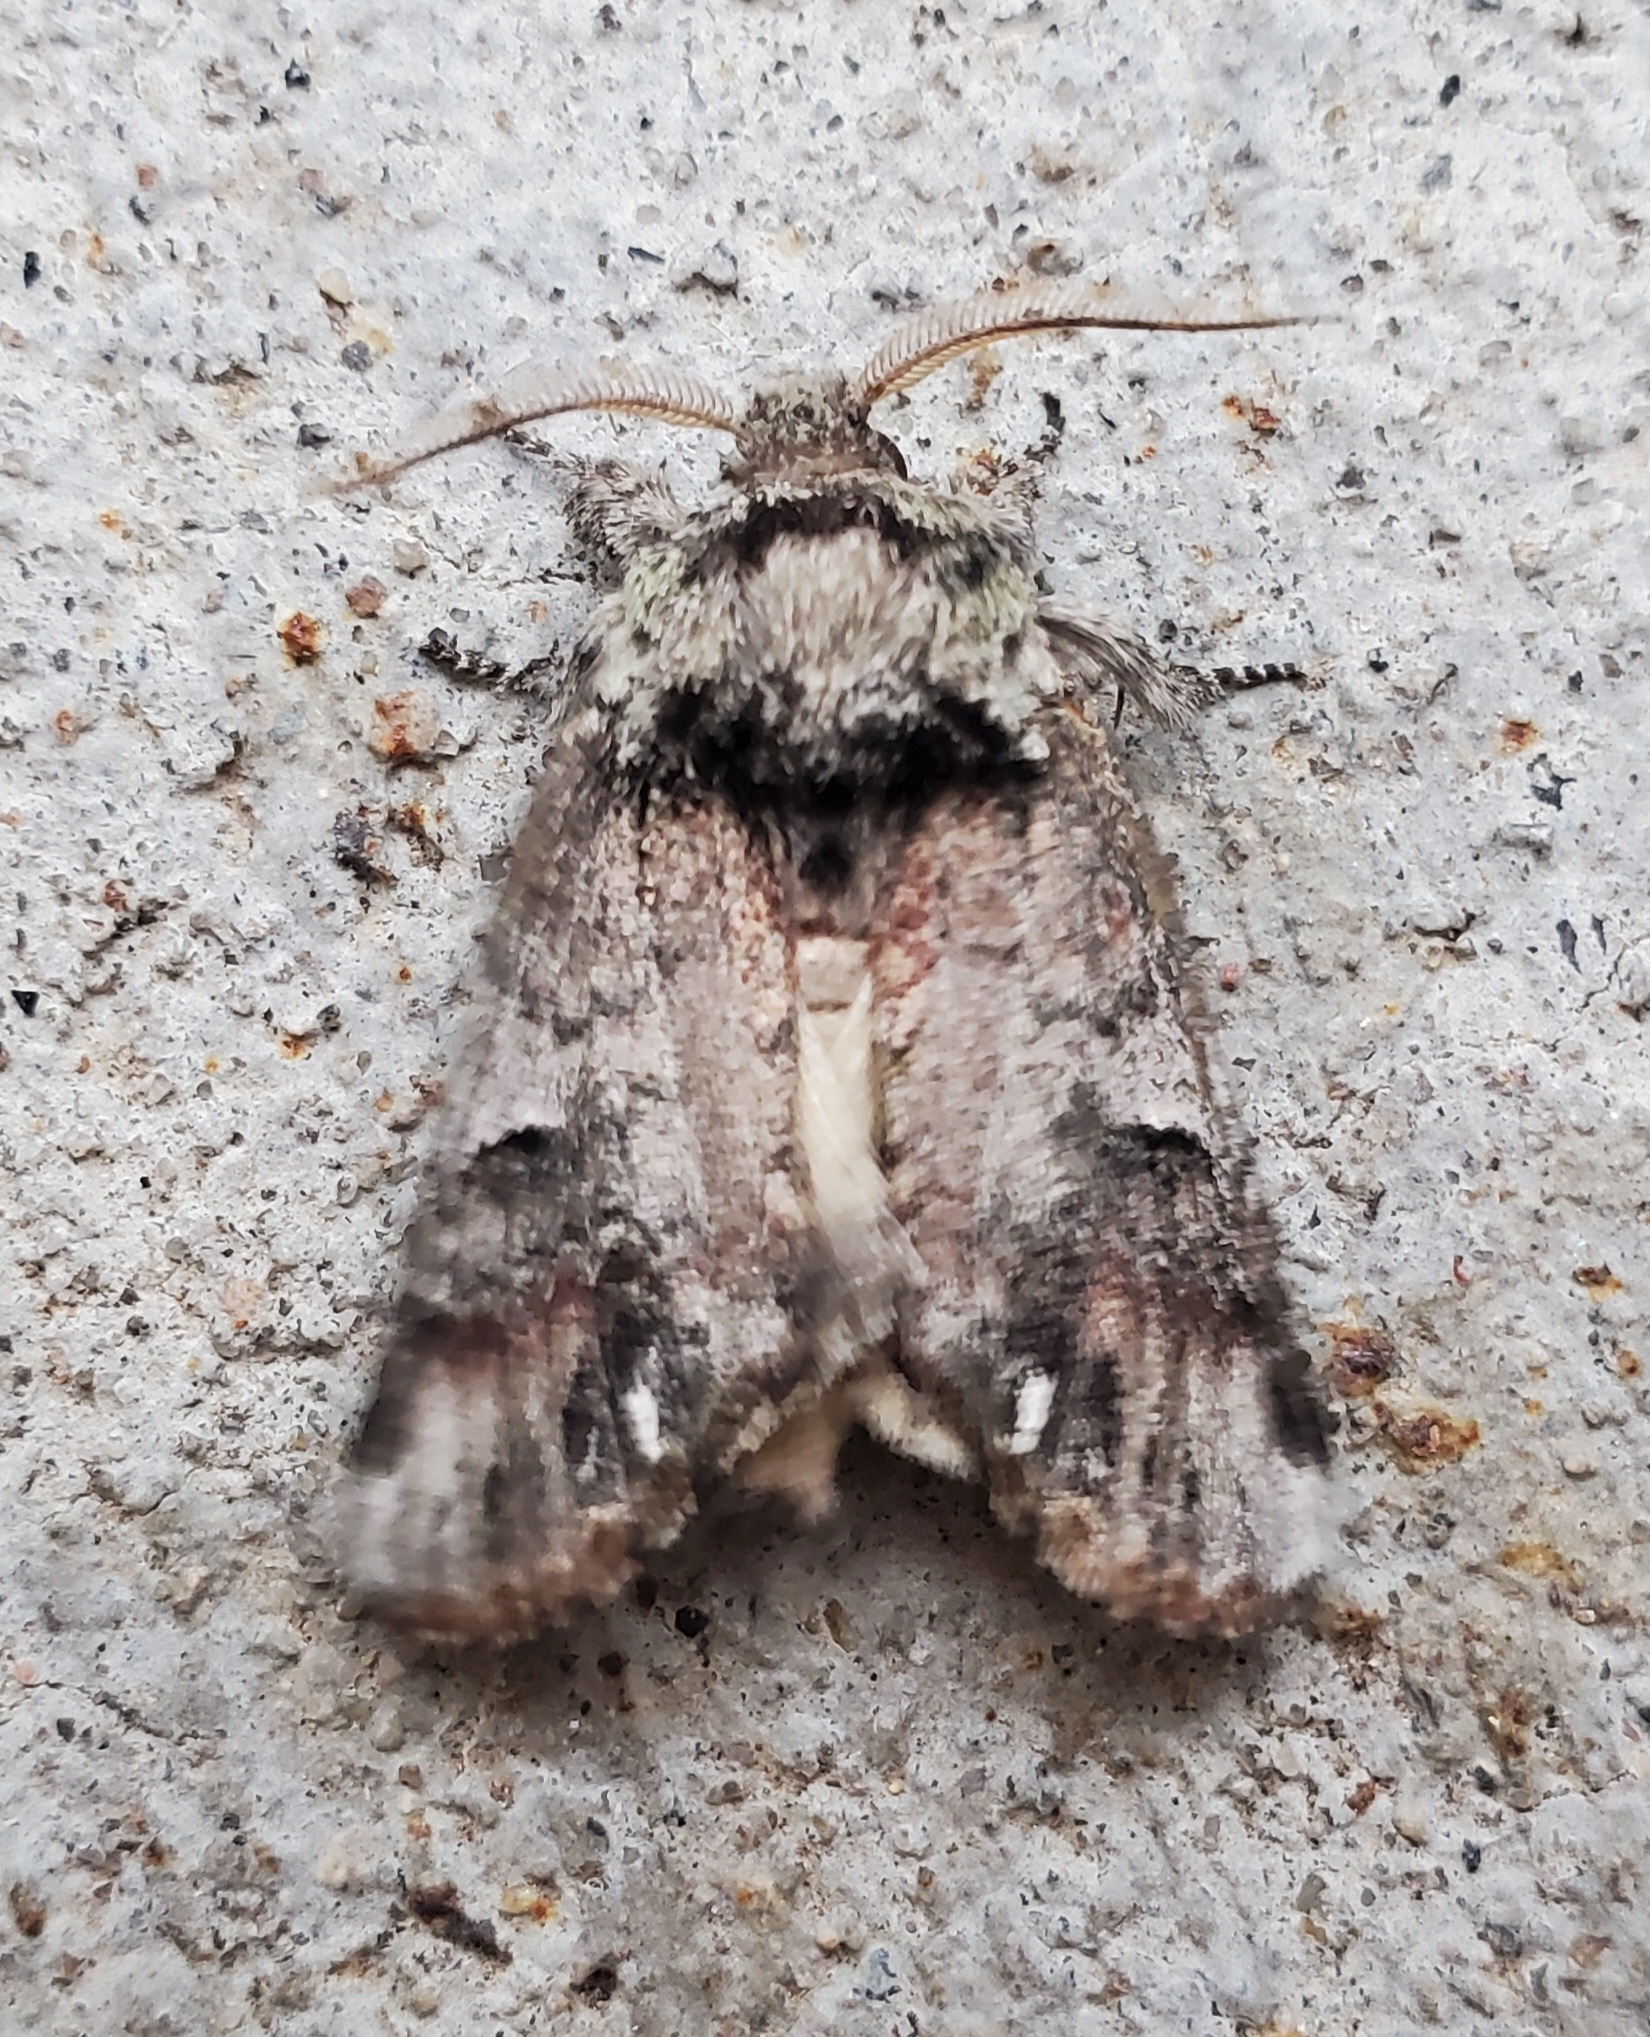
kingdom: Animalia
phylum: Arthropoda
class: Insecta
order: Lepidoptera
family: Notodontidae
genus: Schizura
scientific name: Schizura
